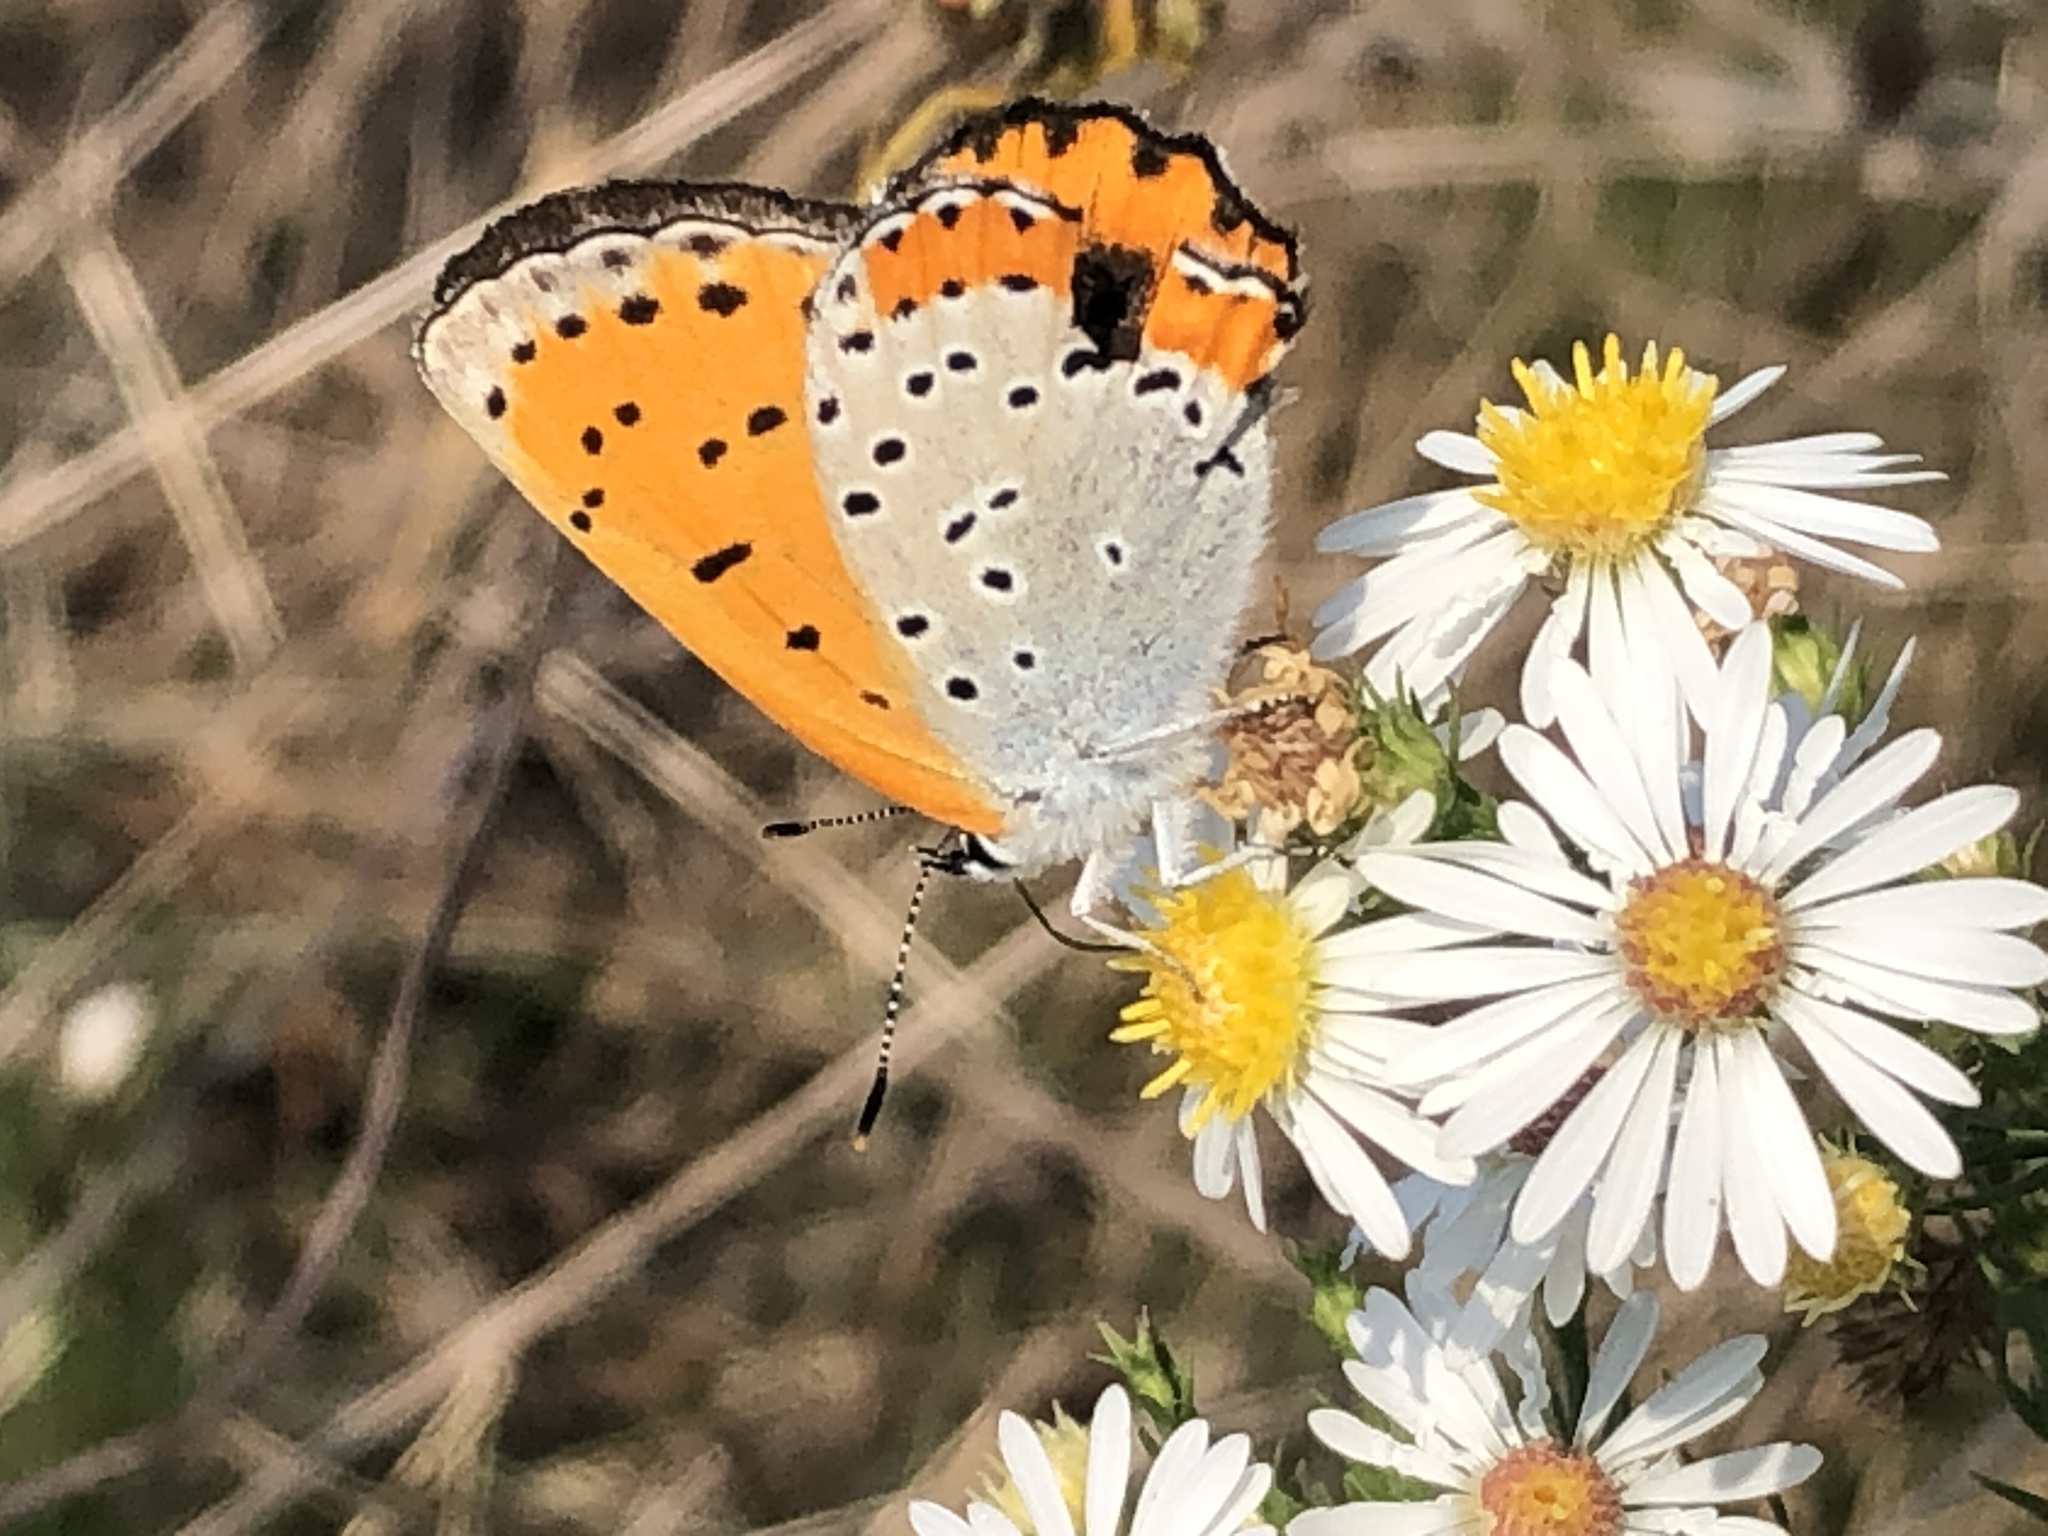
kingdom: Animalia
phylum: Arthropoda
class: Insecta
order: Lepidoptera
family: Lycaenidae
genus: Tharsalea
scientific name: Tharsalea hyllus
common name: Bronze copper
